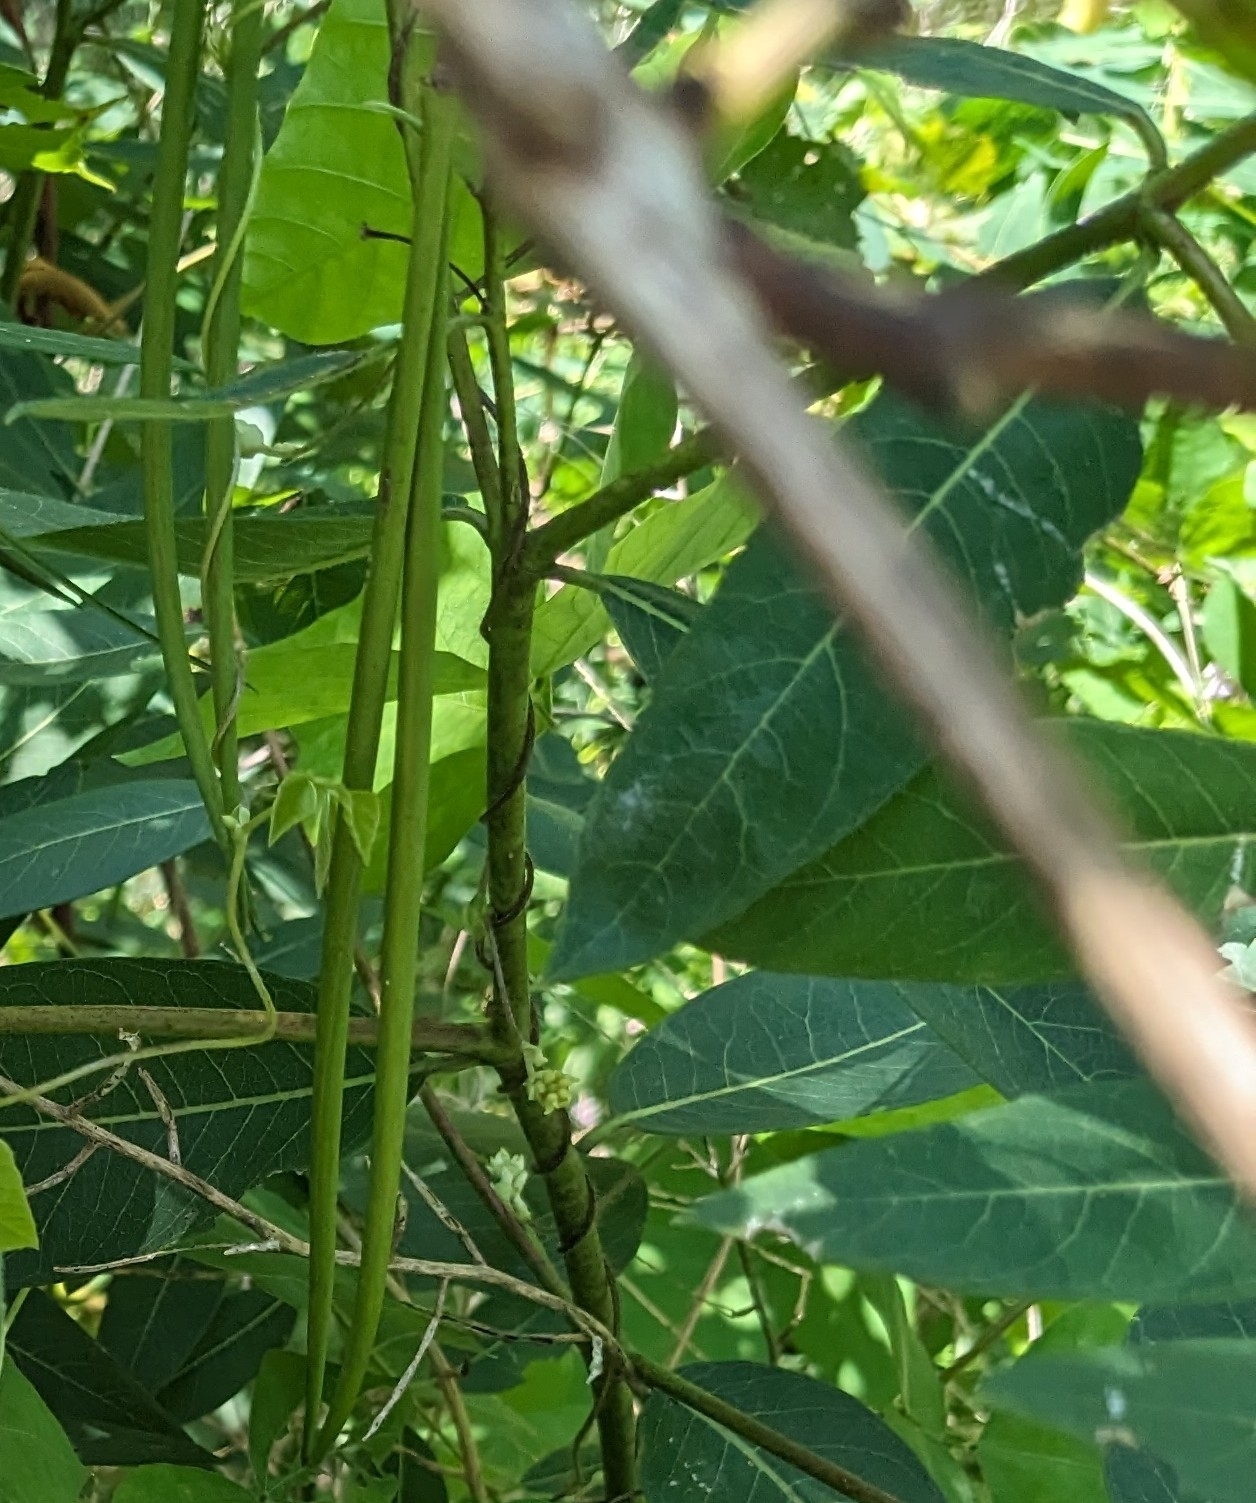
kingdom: Plantae
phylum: Tracheophyta
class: Magnoliopsida
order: Gentianales
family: Apocynaceae
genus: Apocynum
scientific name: Apocynum cannabinum
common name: Hemp dogbane
